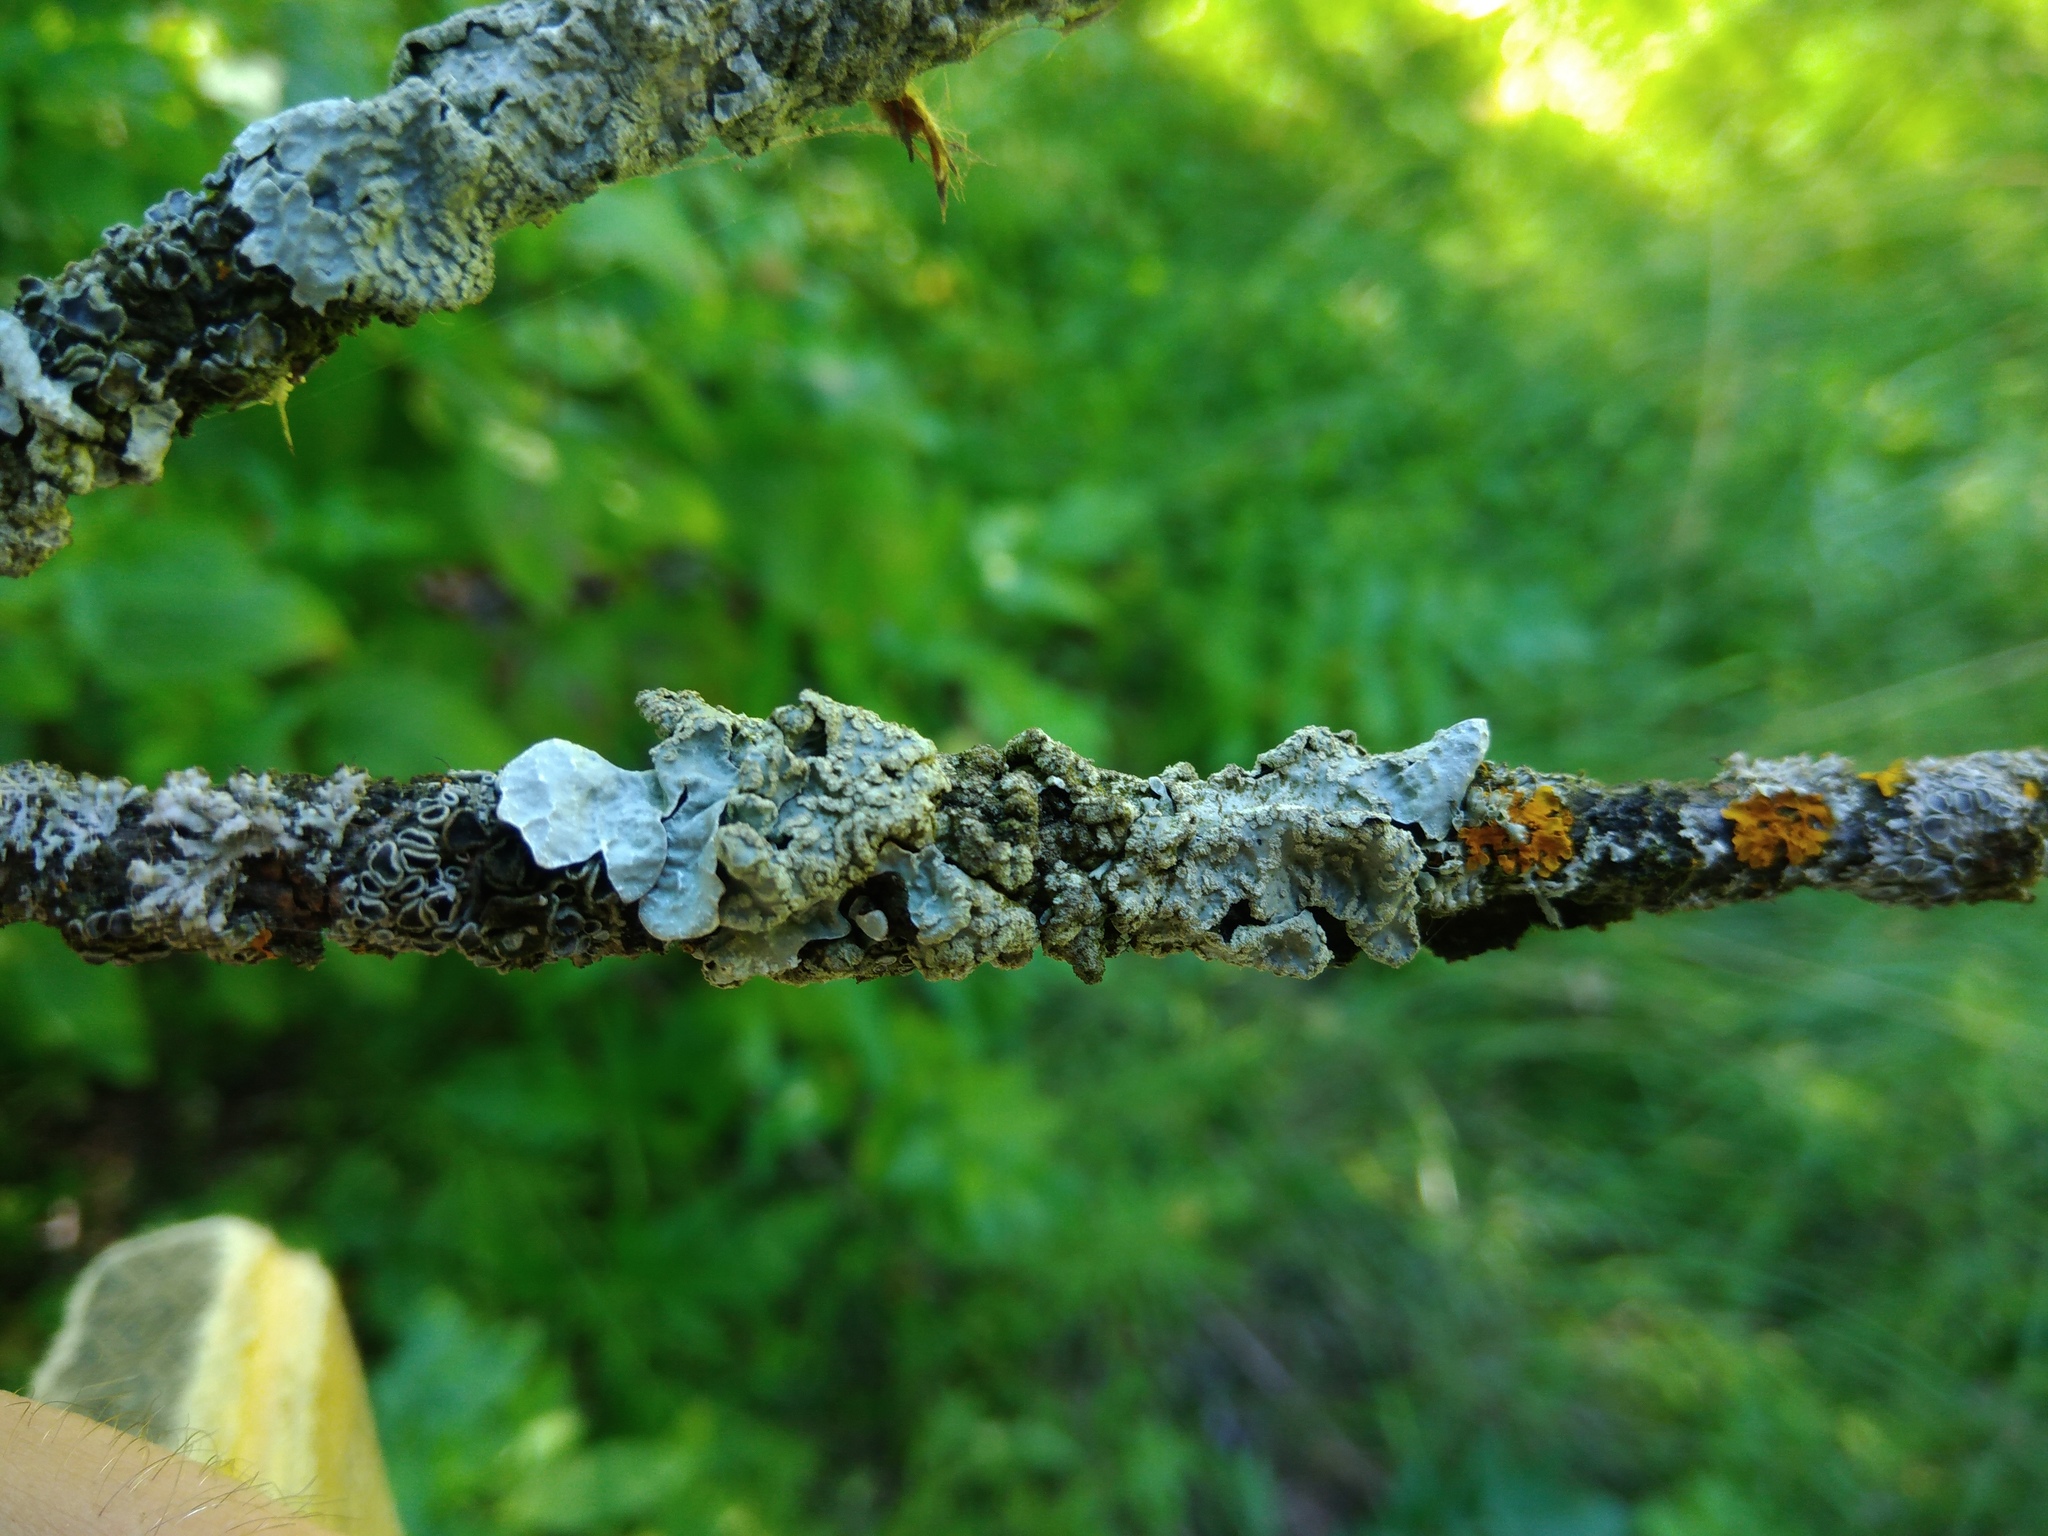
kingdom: Fungi
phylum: Ascomycota
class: Lecanoromycetes
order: Lecanorales
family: Parmeliaceae
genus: Parmelia
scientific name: Parmelia sulcata
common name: Netted shield lichen
